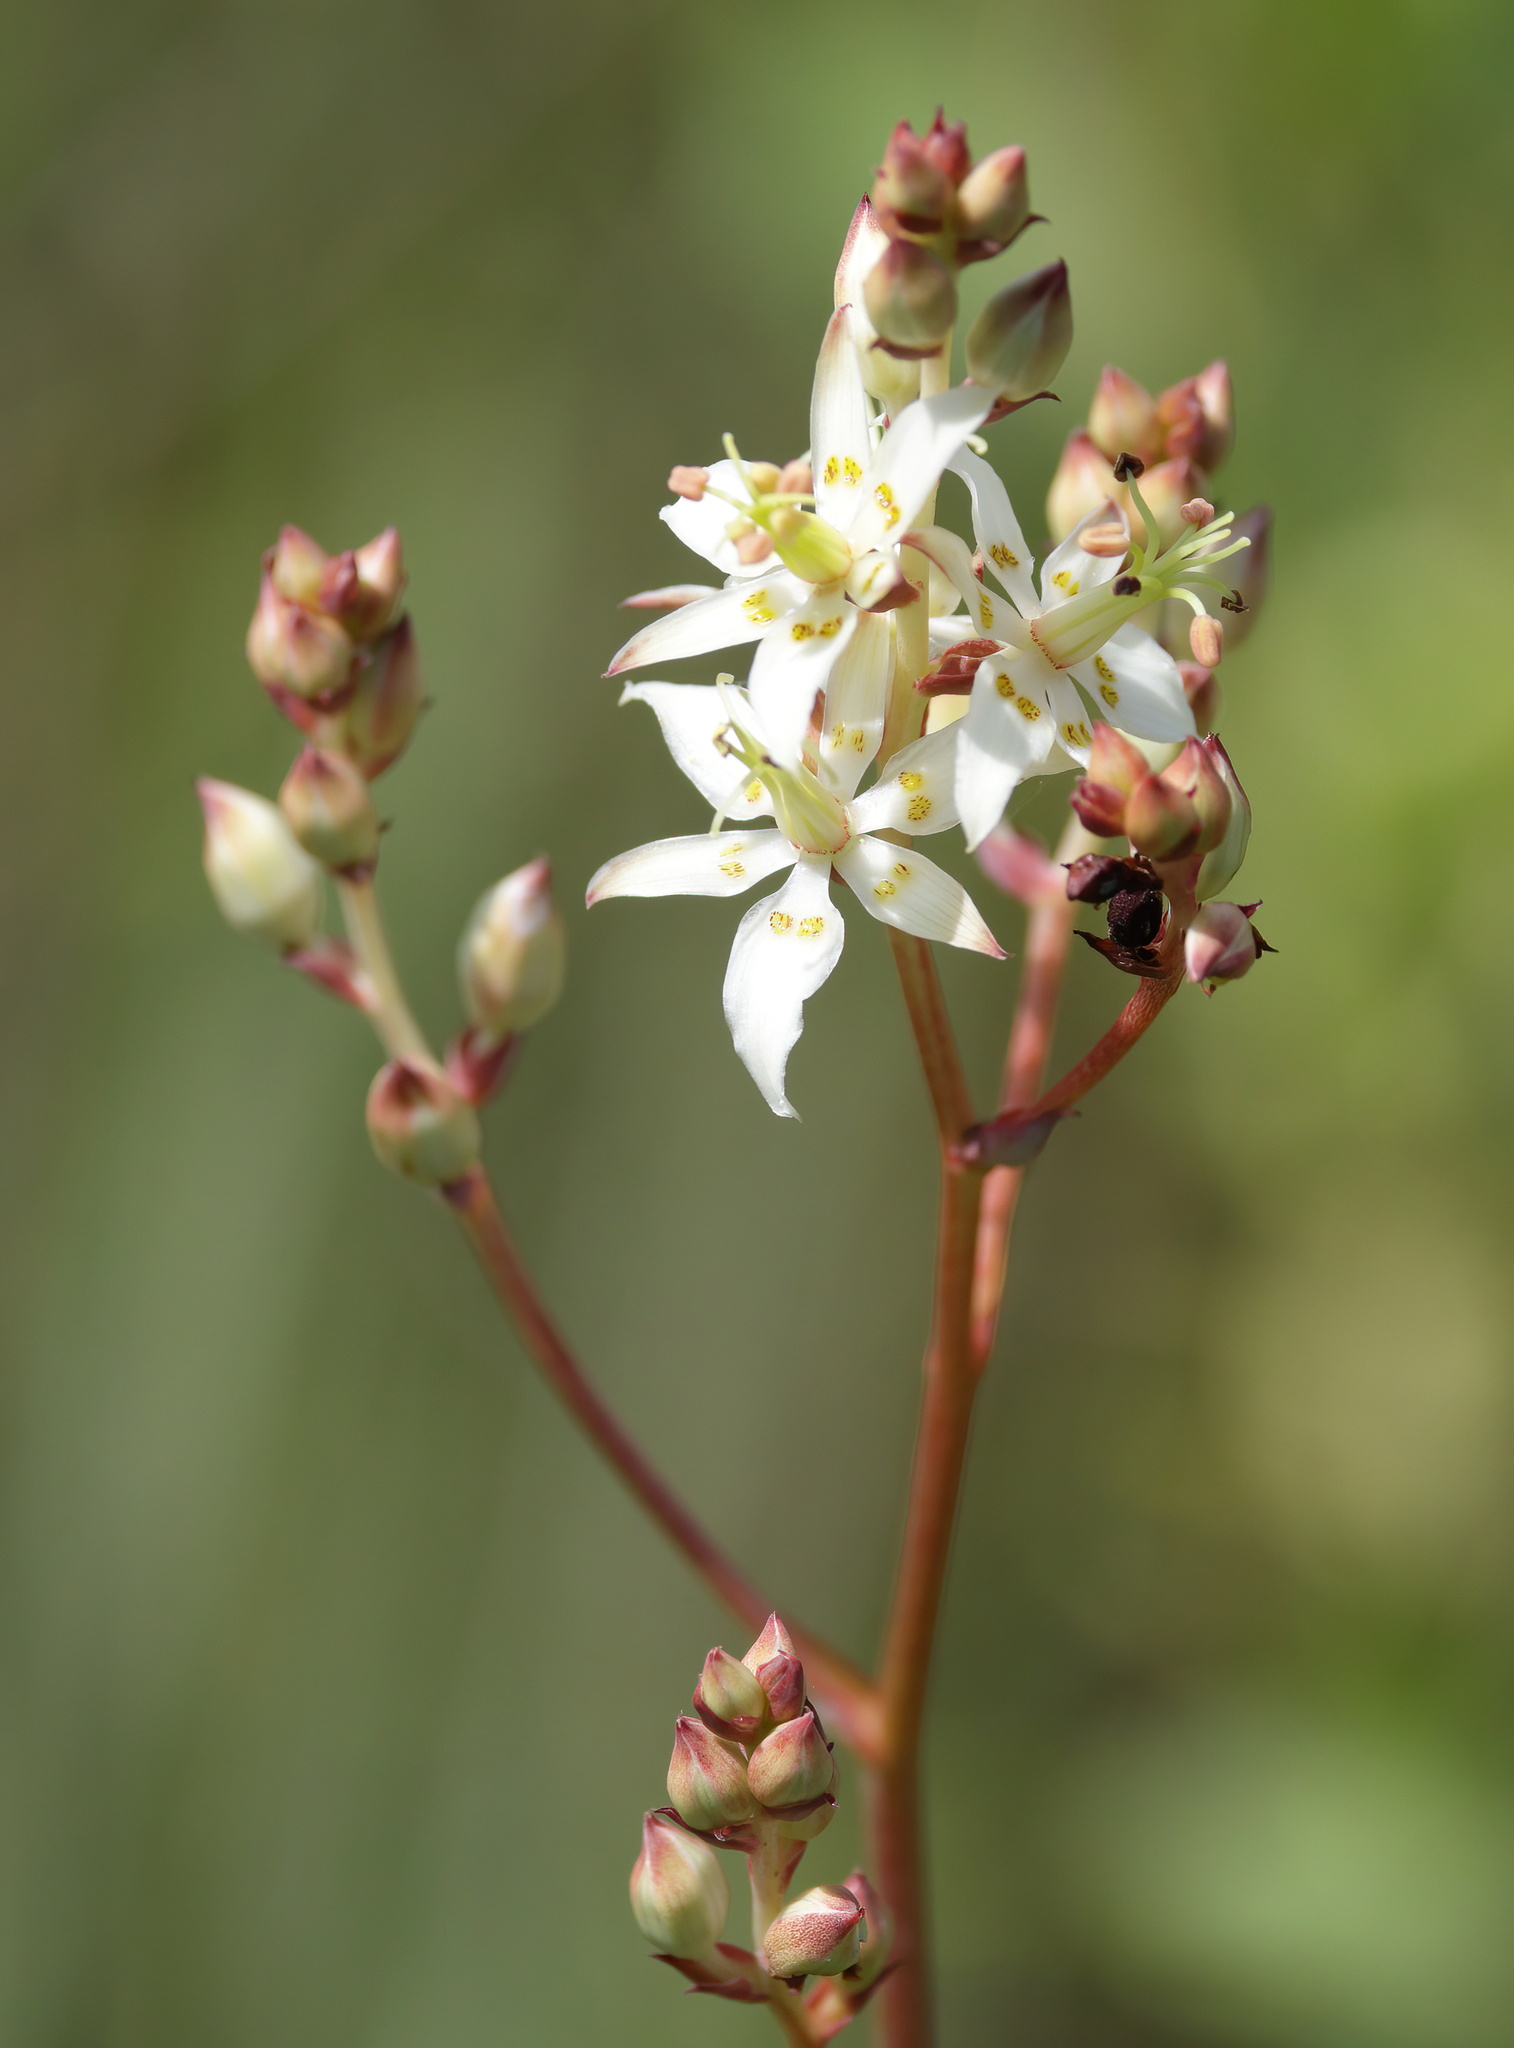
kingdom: Plantae
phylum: Tracheophyta
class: Liliopsida
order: Liliales
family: Melanthiaceae
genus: Zigadenus
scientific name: Zigadenus glaberrimus
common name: Sandbog death camas
